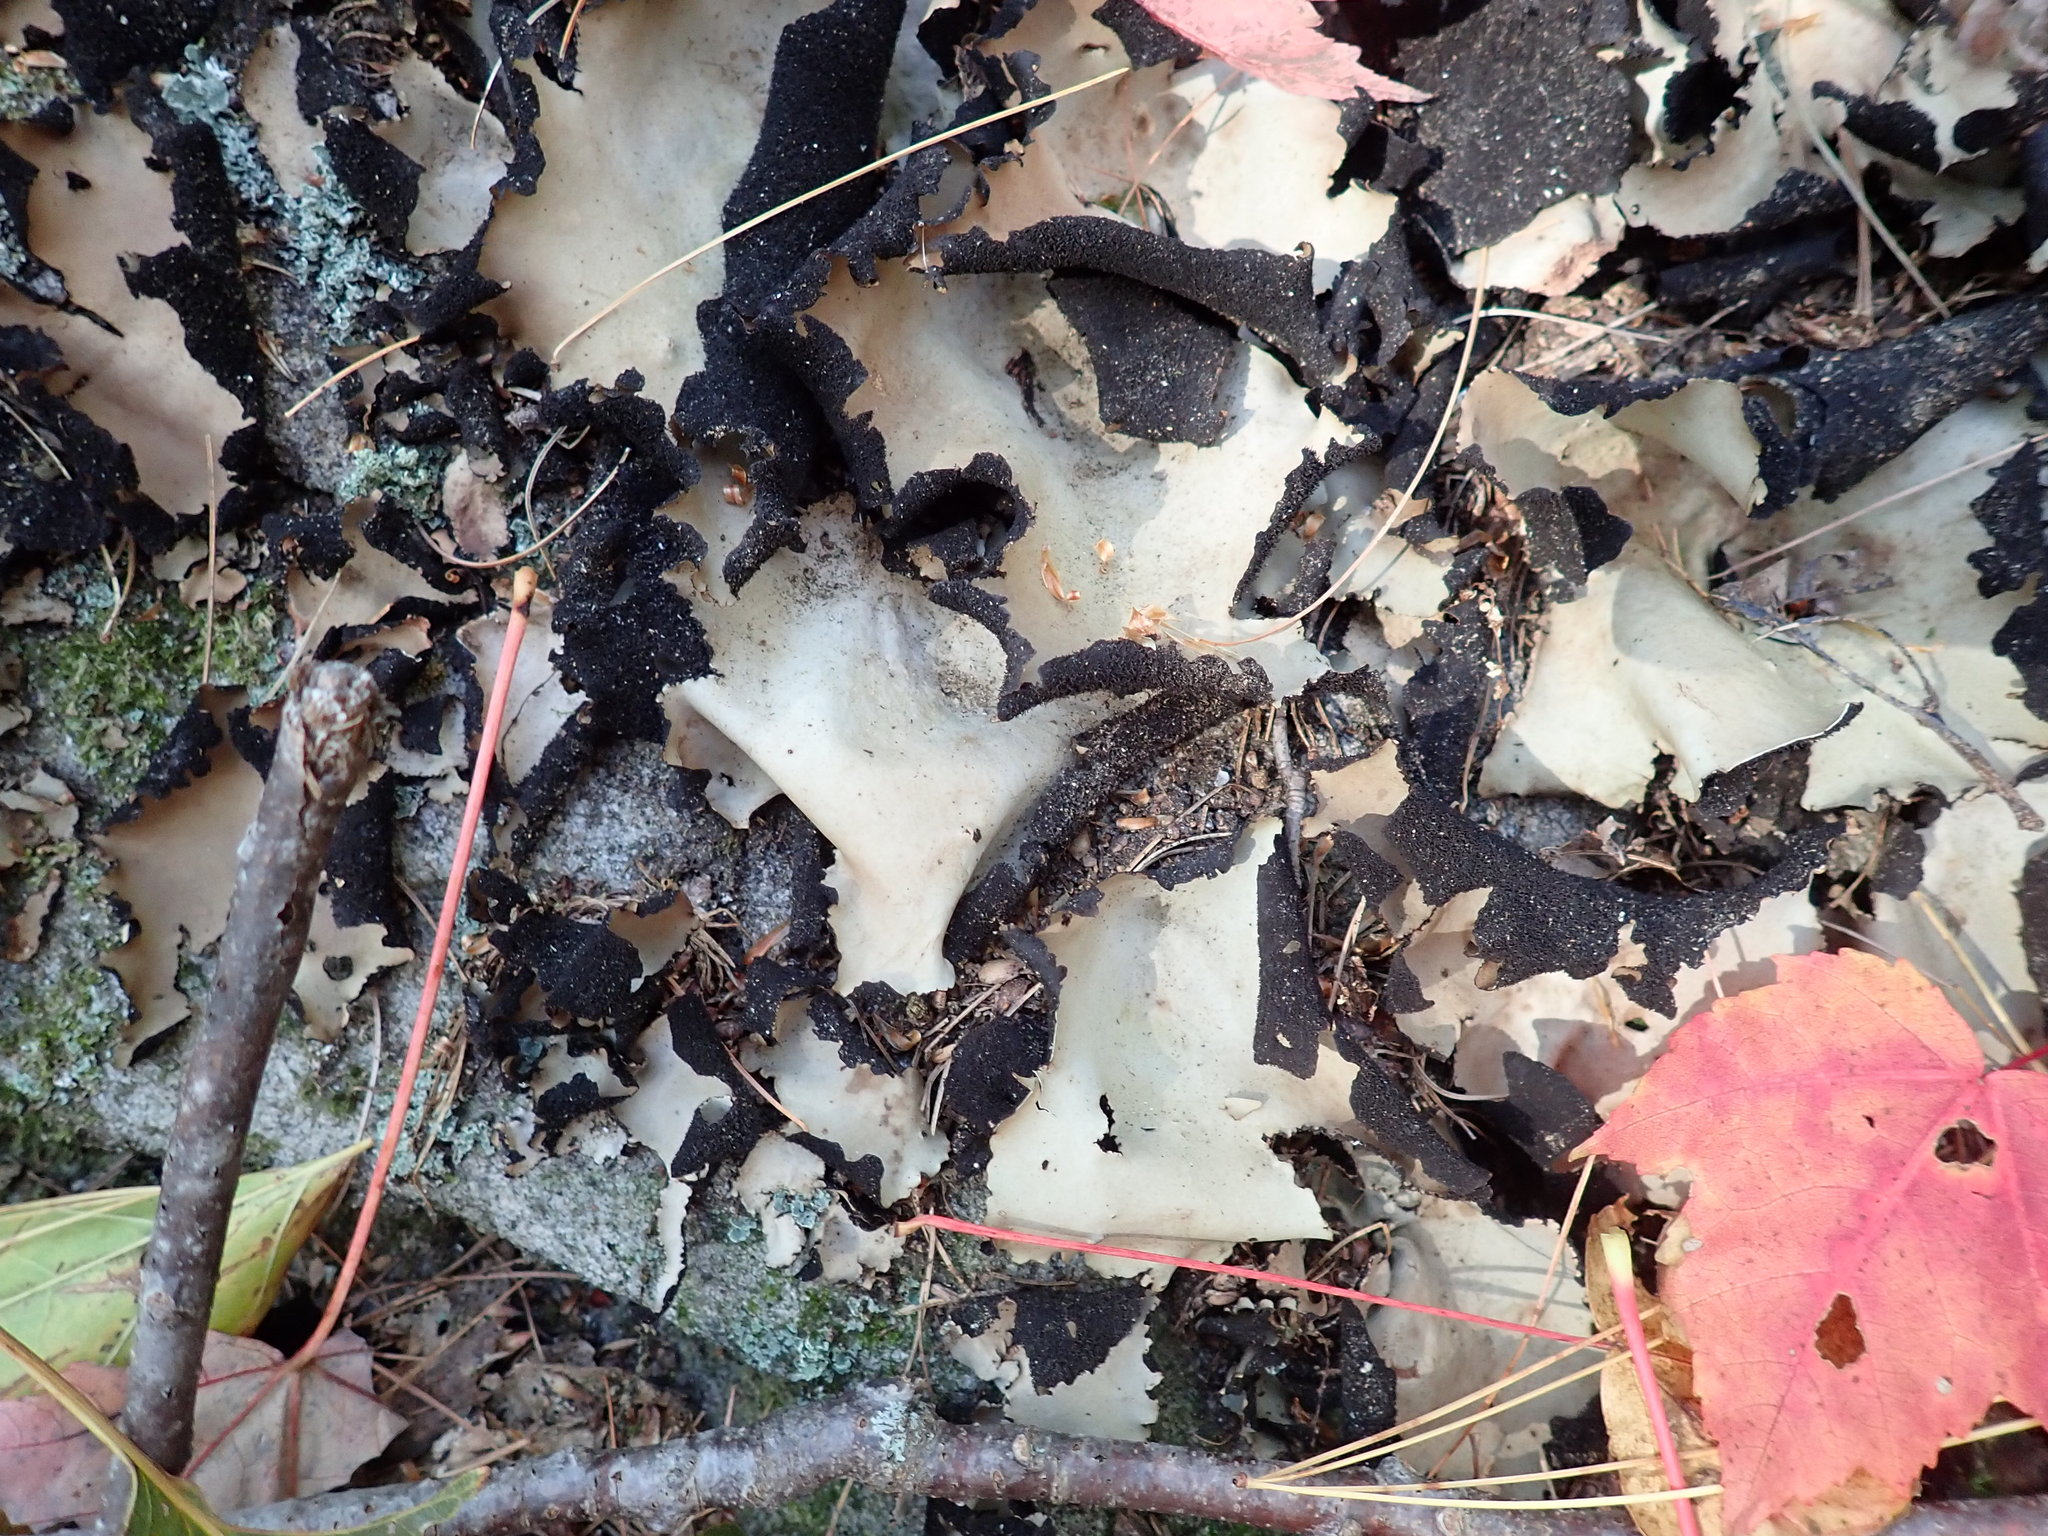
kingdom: Fungi
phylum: Ascomycota
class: Lecanoromycetes
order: Umbilicariales
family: Umbilicariaceae
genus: Umbilicaria
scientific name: Umbilicaria mammulata
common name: Smooth rock tripe
